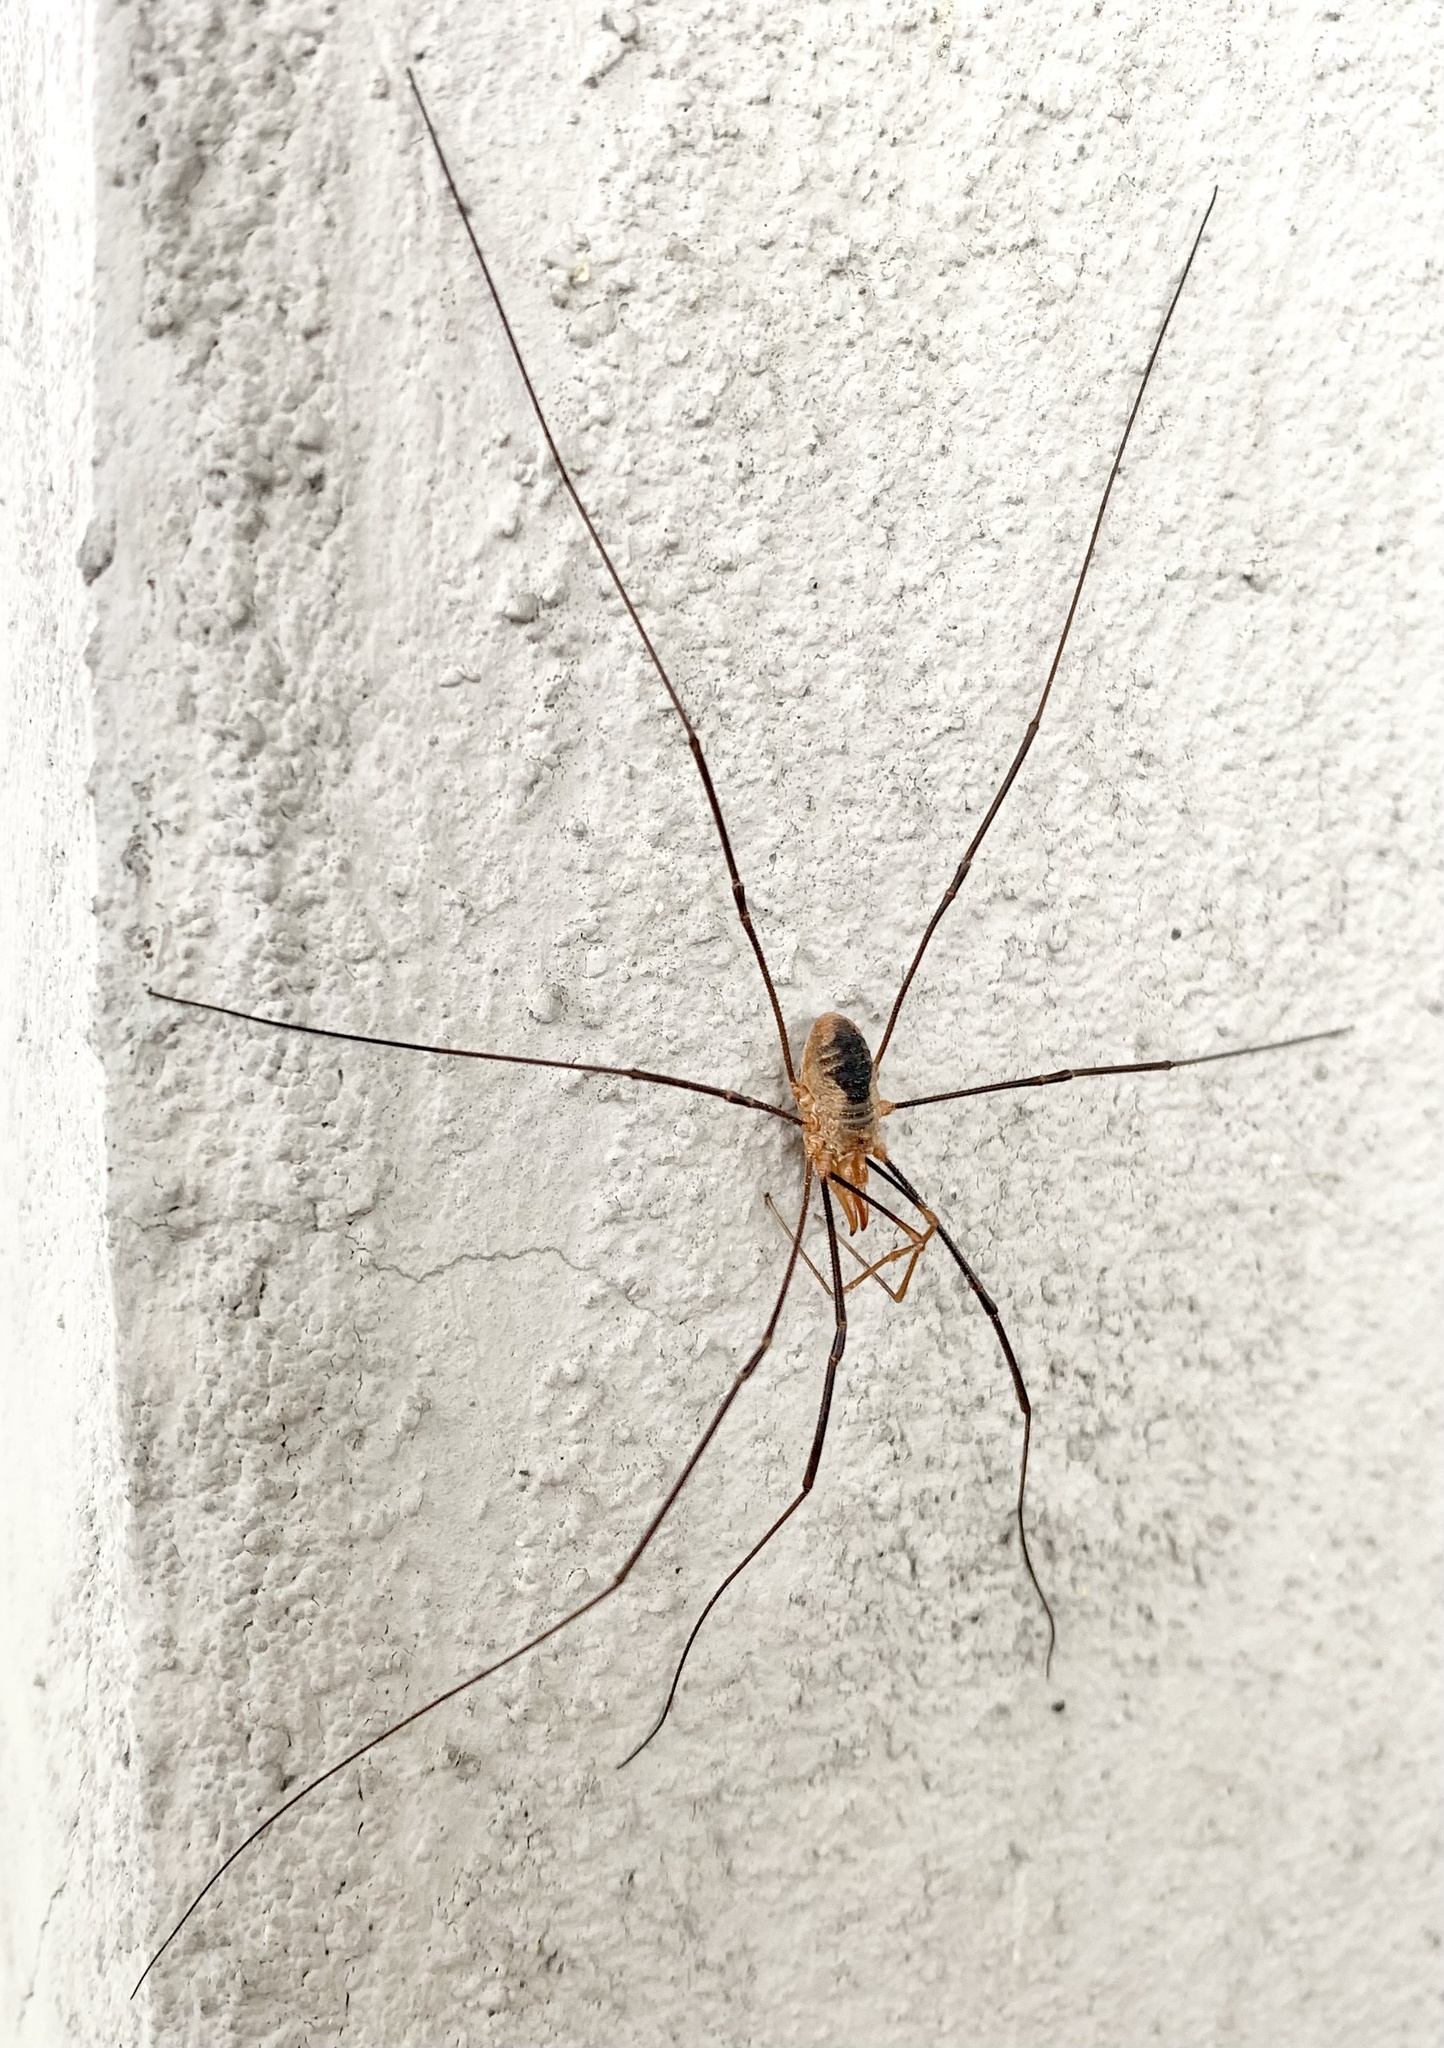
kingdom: Animalia
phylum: Arthropoda
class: Arachnida
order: Opiliones
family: Phalangiidae
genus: Phalangium
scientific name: Phalangium opilio
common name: Daddy longleg
